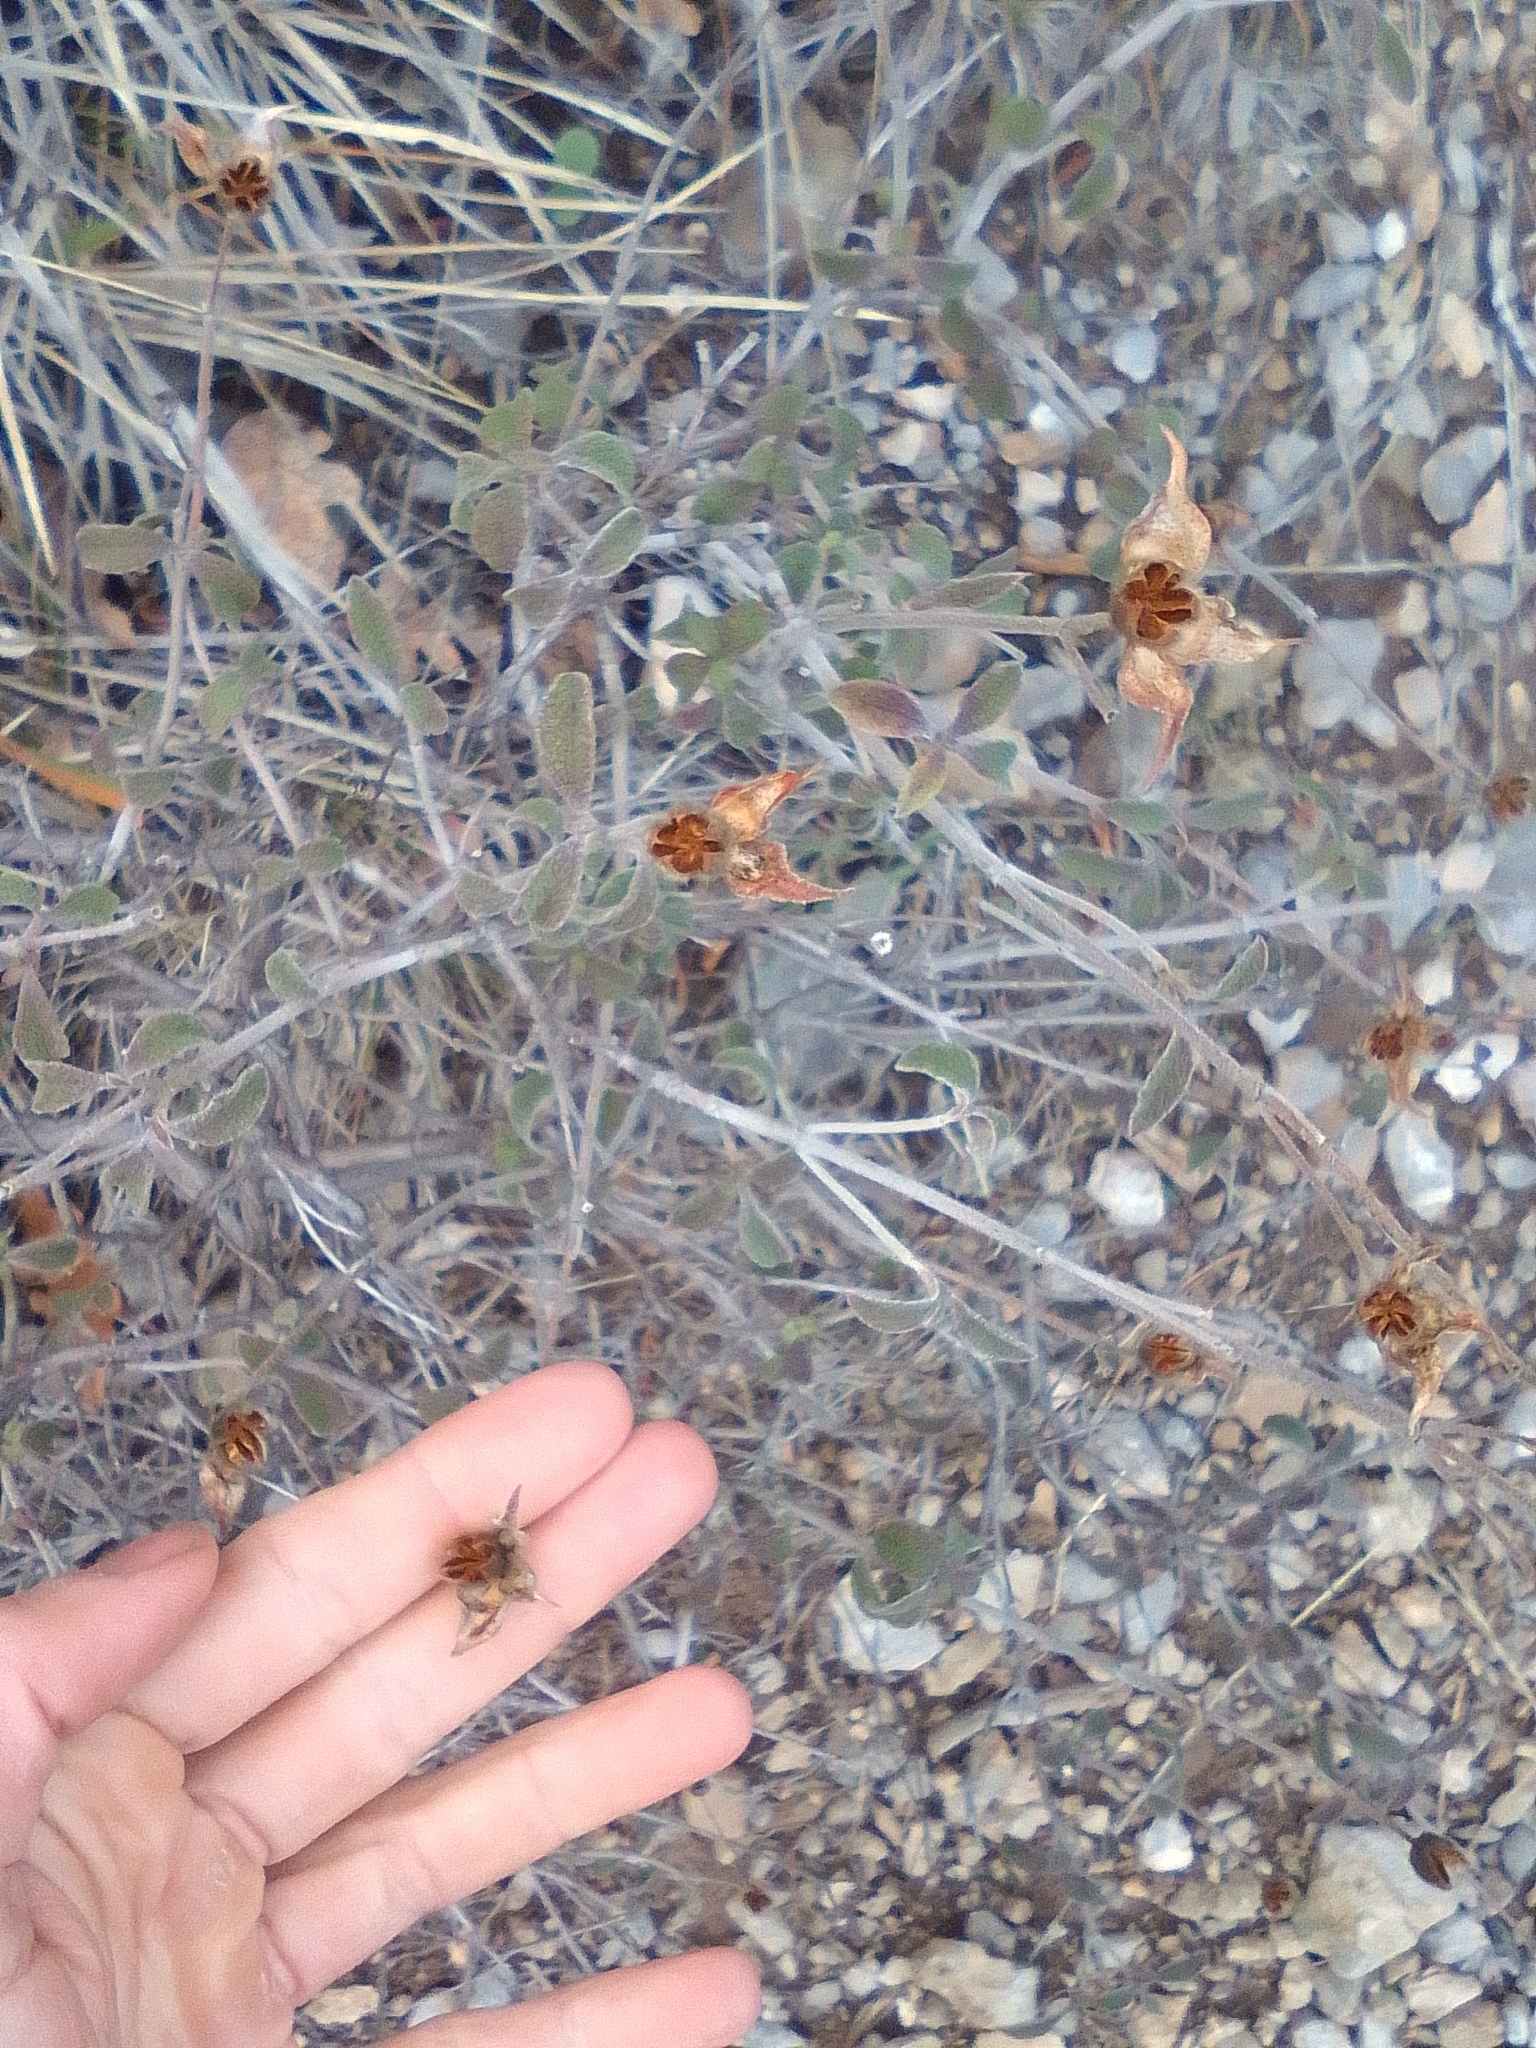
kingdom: Plantae
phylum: Tracheophyta
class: Magnoliopsida
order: Malvales
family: Cistaceae
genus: Cistus
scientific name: Cistus tauricus
